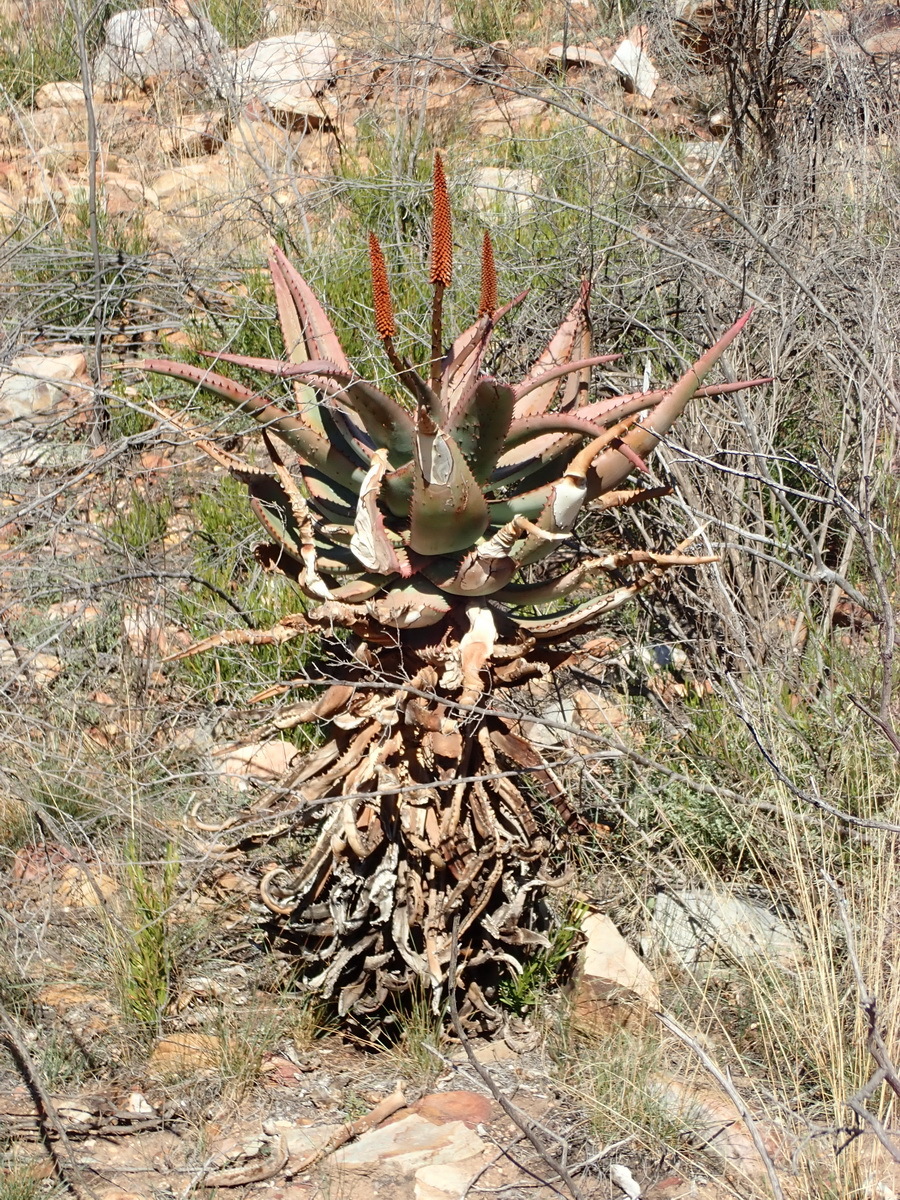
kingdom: Plantae
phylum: Tracheophyta
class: Liliopsida
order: Asparagales
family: Asphodelaceae
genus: Aloe
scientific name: Aloe ferox
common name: Bitter aloe
